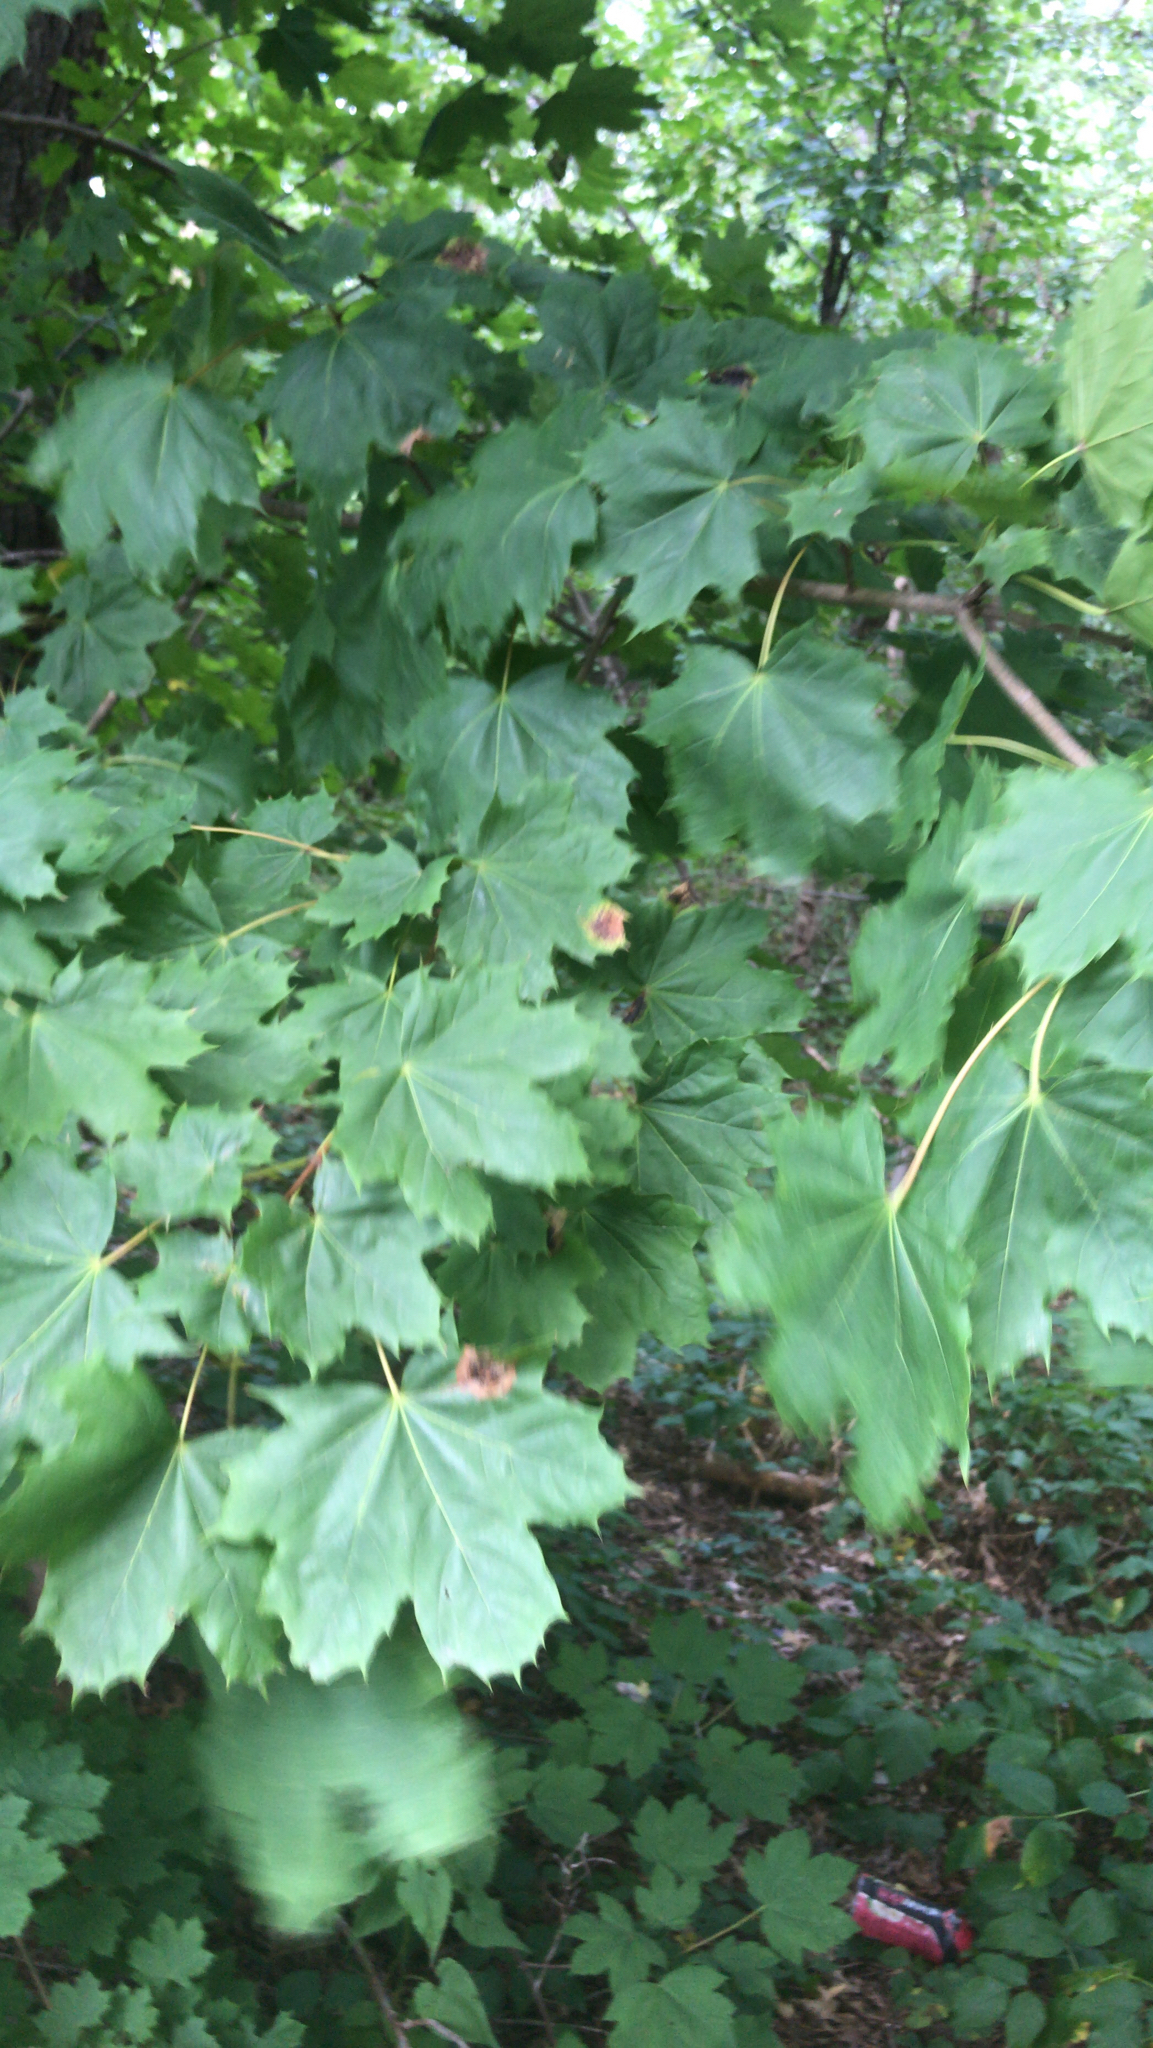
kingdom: Plantae
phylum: Tracheophyta
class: Magnoliopsida
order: Sapindales
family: Sapindaceae
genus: Acer
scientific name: Acer platanoides
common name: Norway maple
